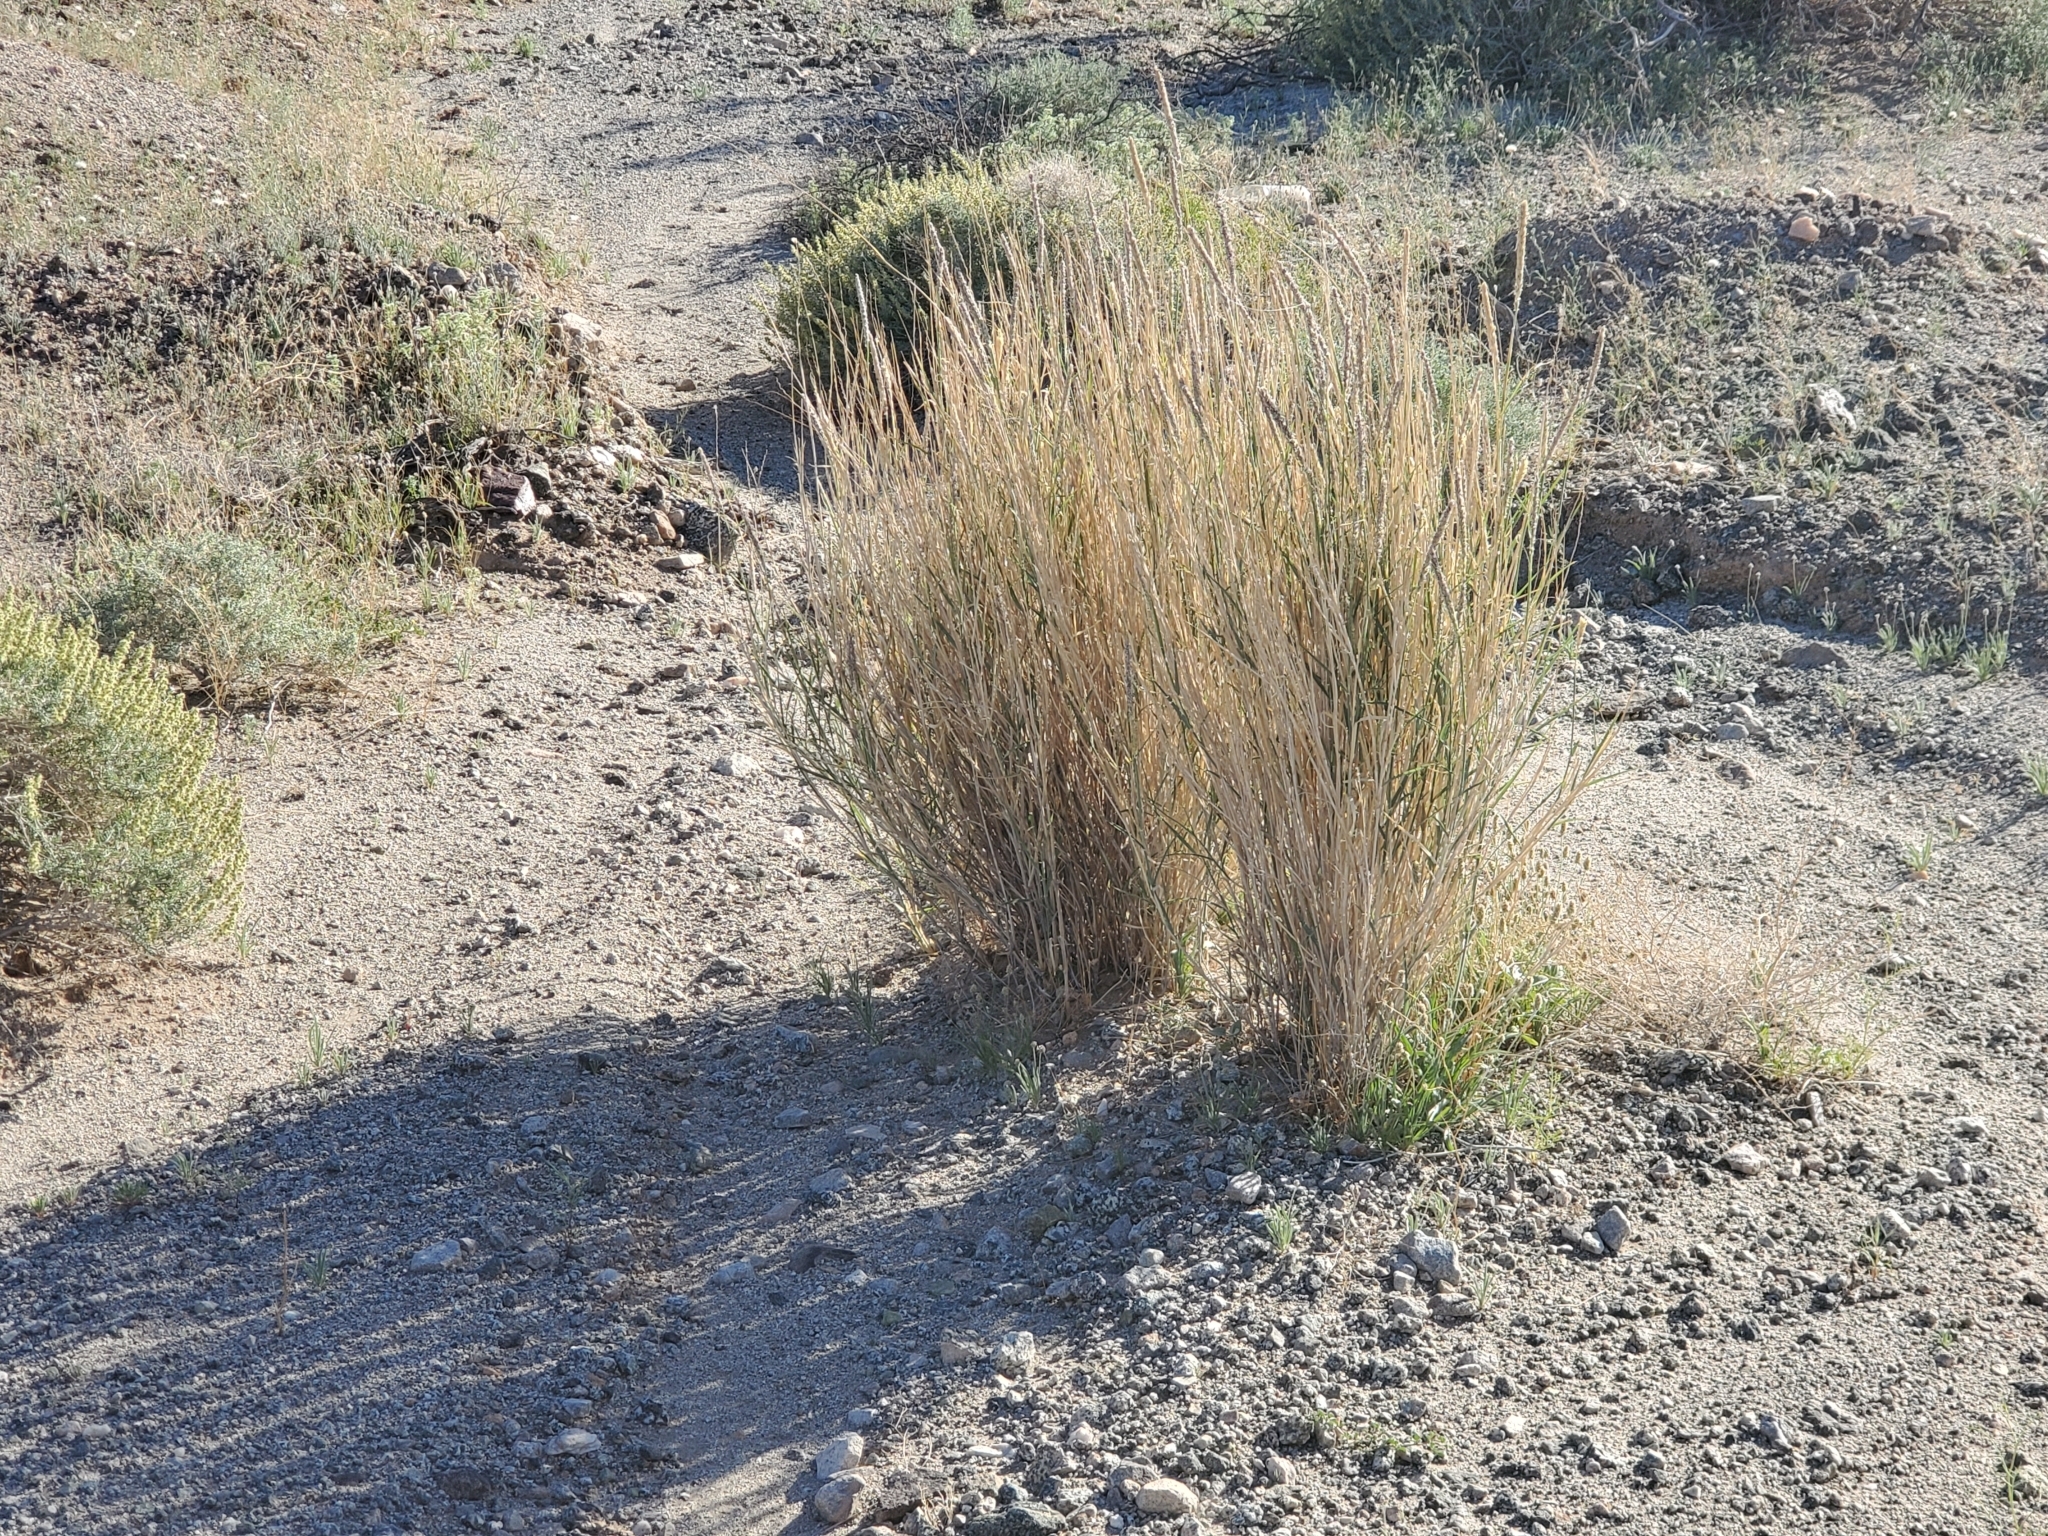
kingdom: Plantae
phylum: Tracheophyta
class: Liliopsida
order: Poales
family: Poaceae
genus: Hilaria
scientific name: Hilaria rigida
